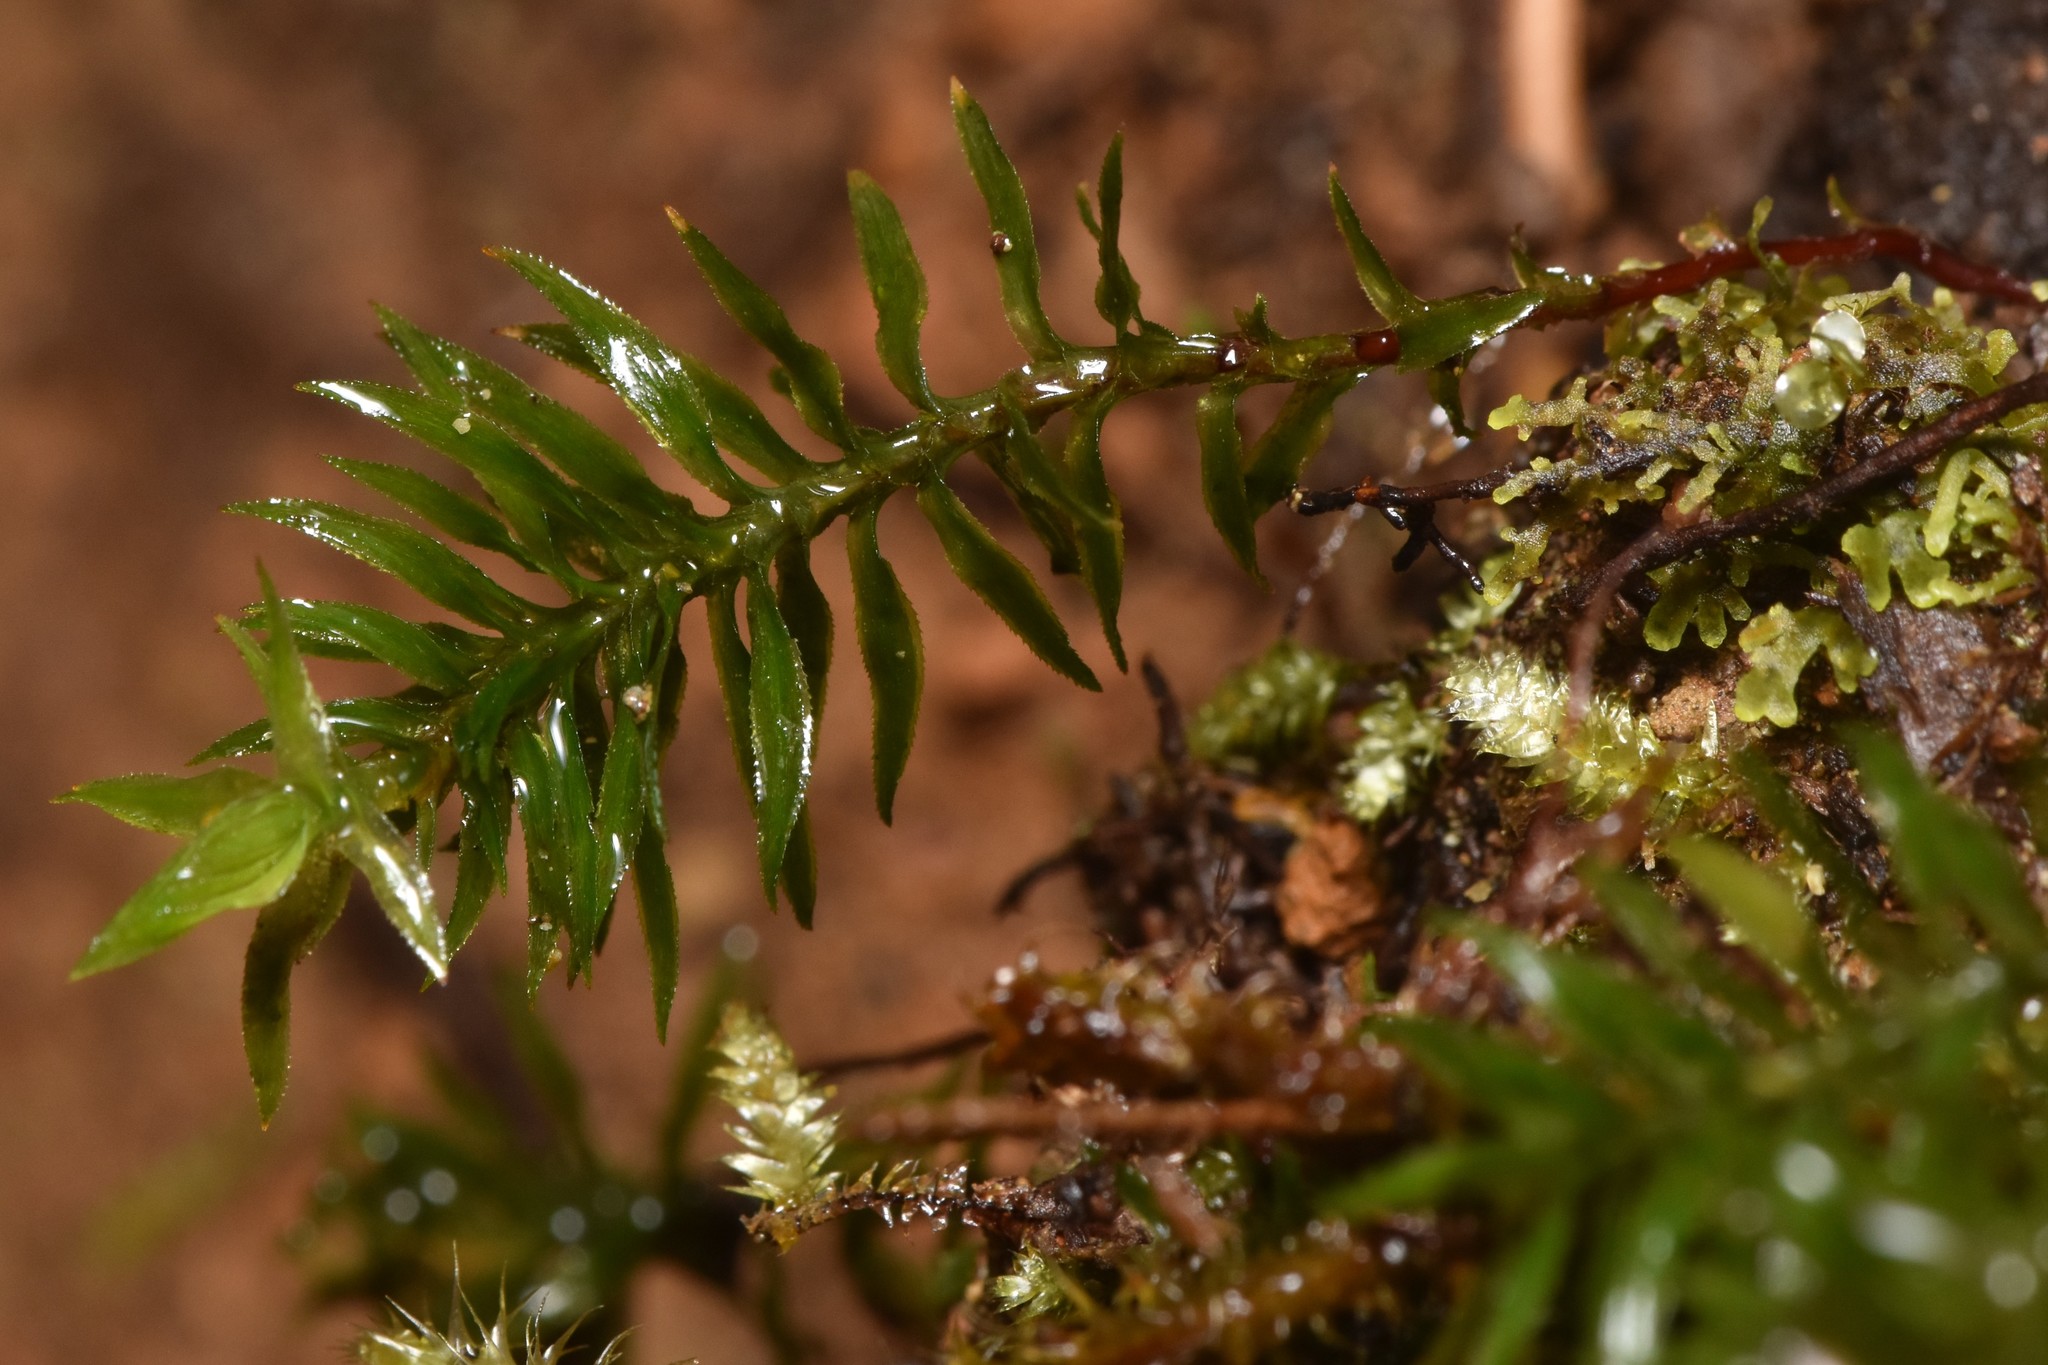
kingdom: Plantae
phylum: Bryophyta
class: Polytrichopsida
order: Polytrichales
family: Polytrichaceae
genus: Pogonatum
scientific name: Pogonatum contortum
